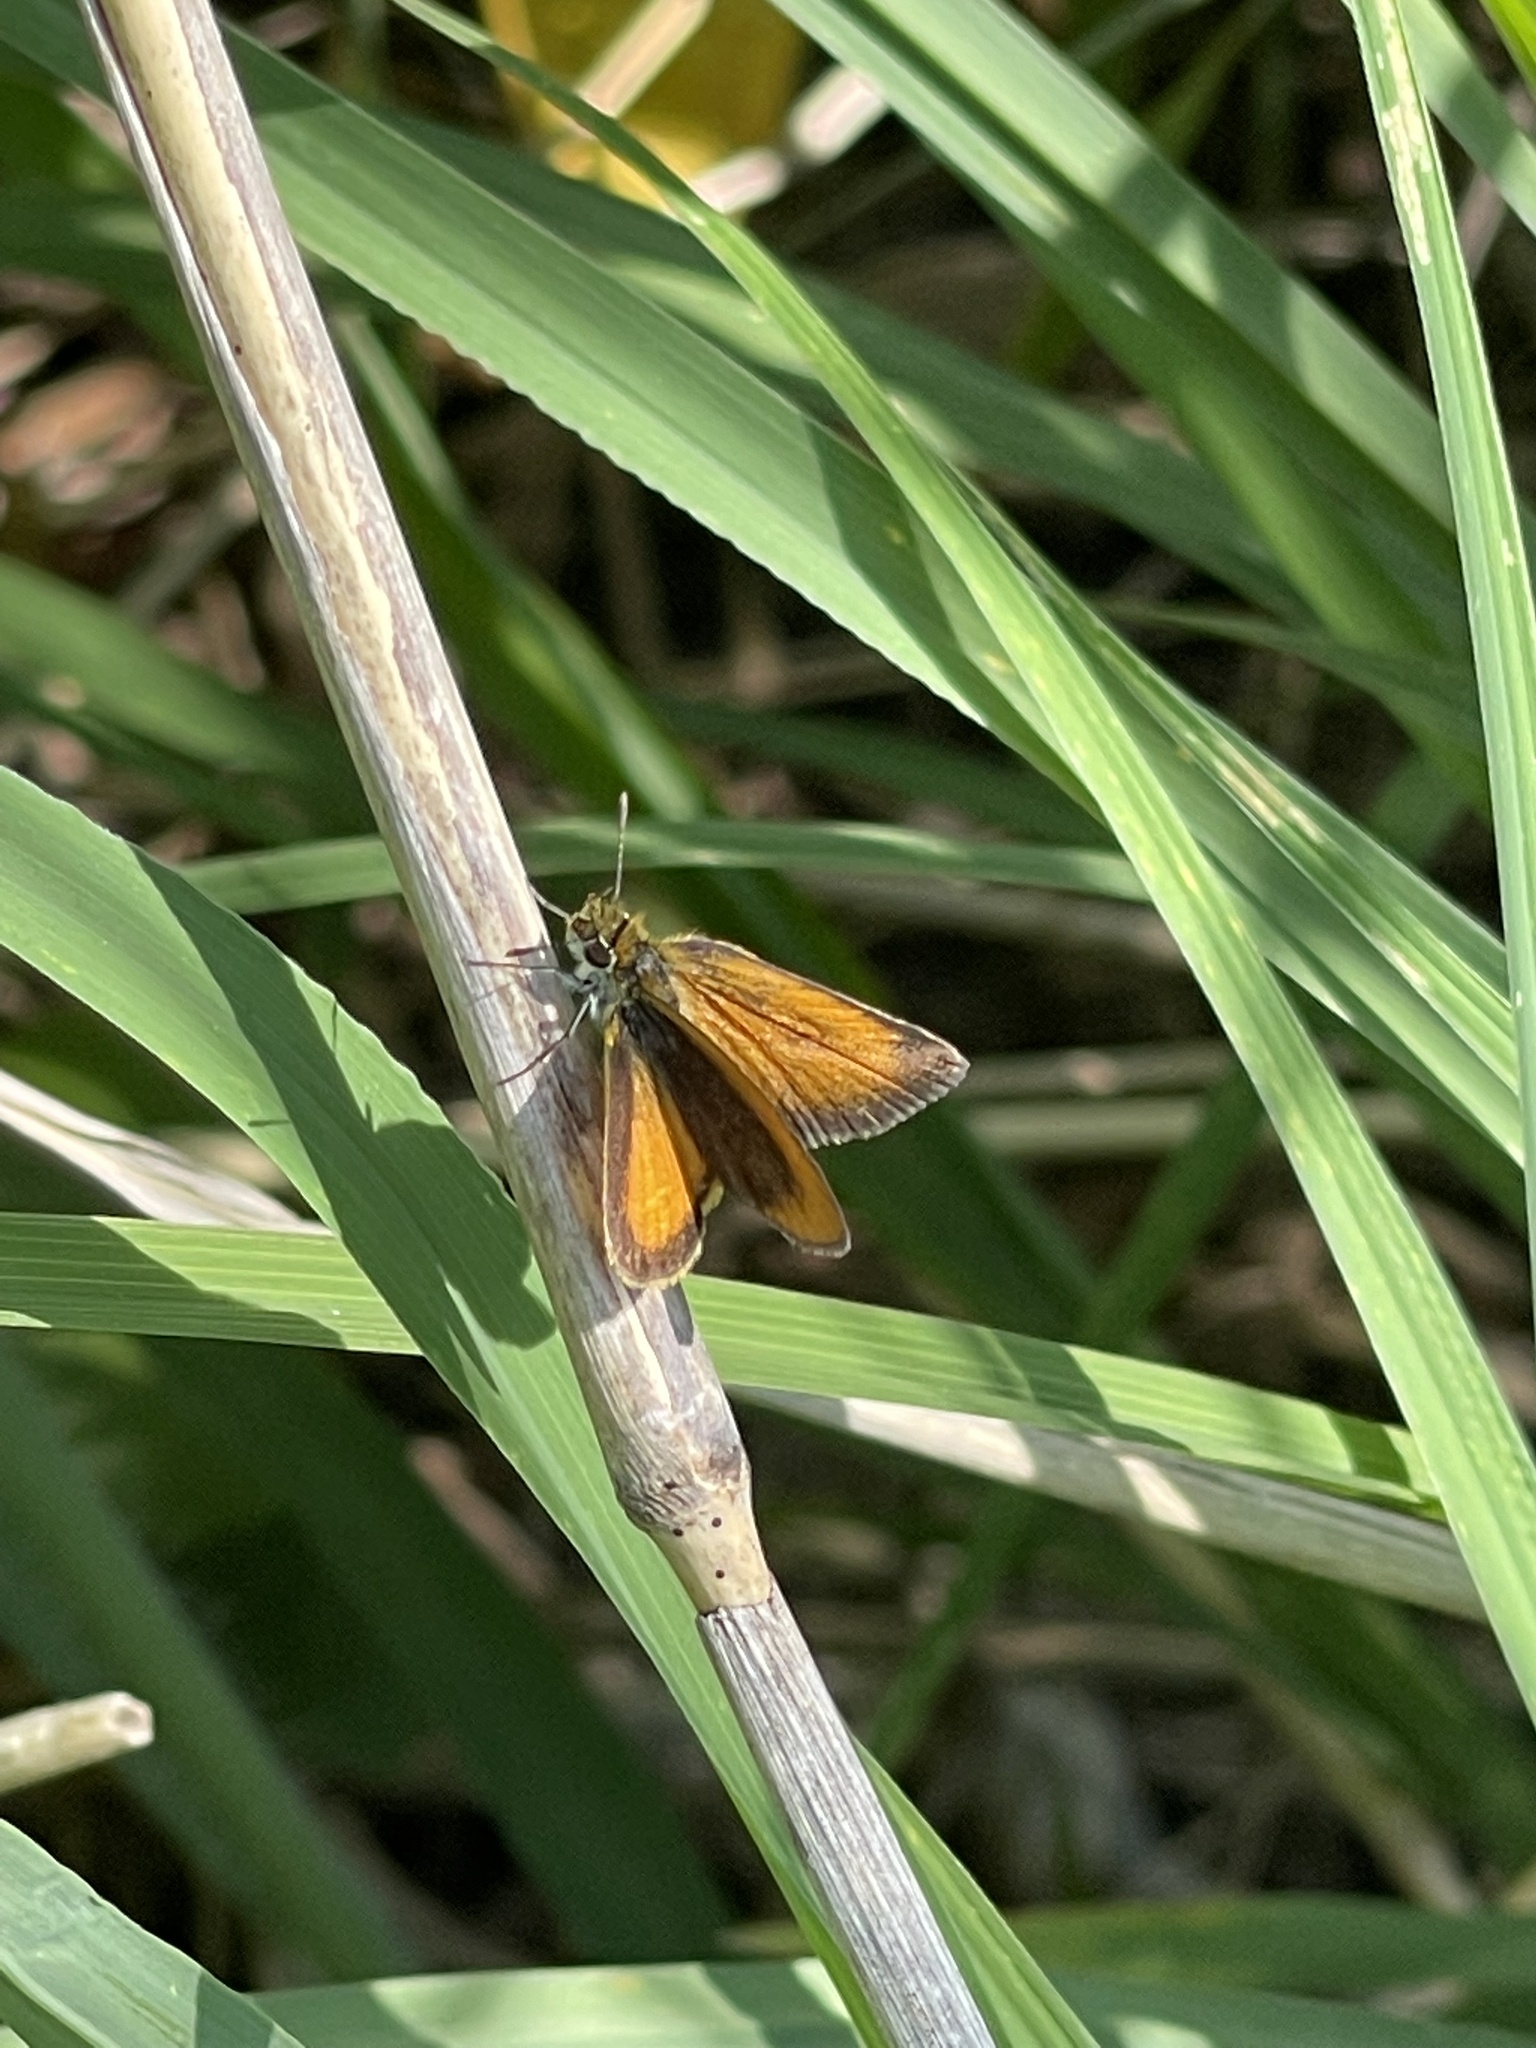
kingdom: Animalia
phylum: Arthropoda
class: Insecta
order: Lepidoptera
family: Hesperiidae
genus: Ancyloxypha
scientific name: Ancyloxypha numitor
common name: Least skipper
